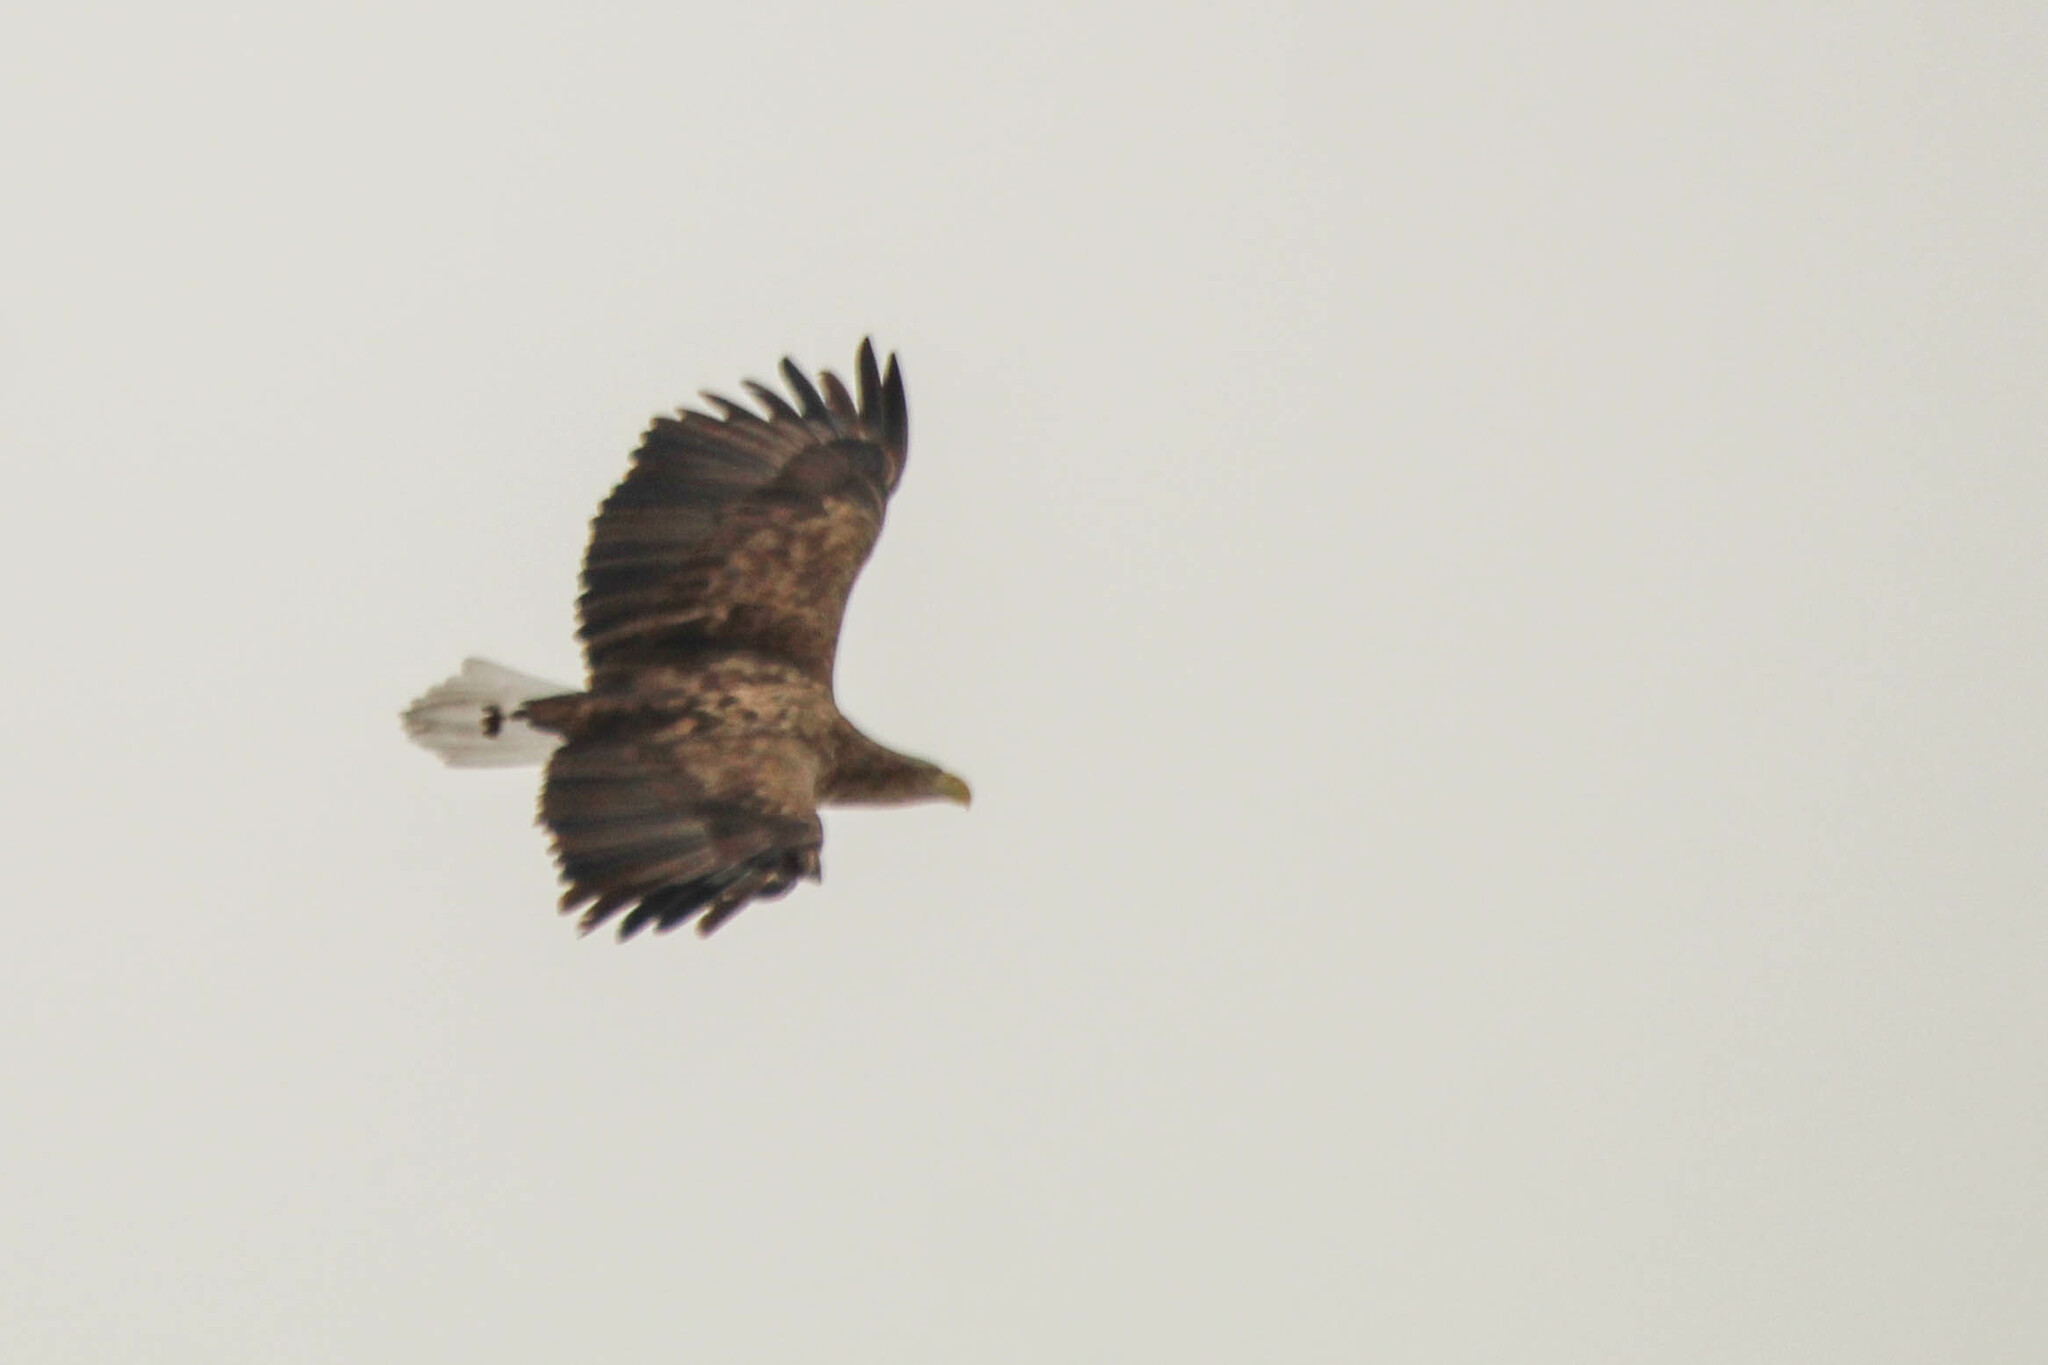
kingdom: Animalia
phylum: Chordata
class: Aves
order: Accipitriformes
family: Accipitridae
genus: Haliaeetus
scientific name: Haliaeetus albicilla
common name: White-tailed eagle
